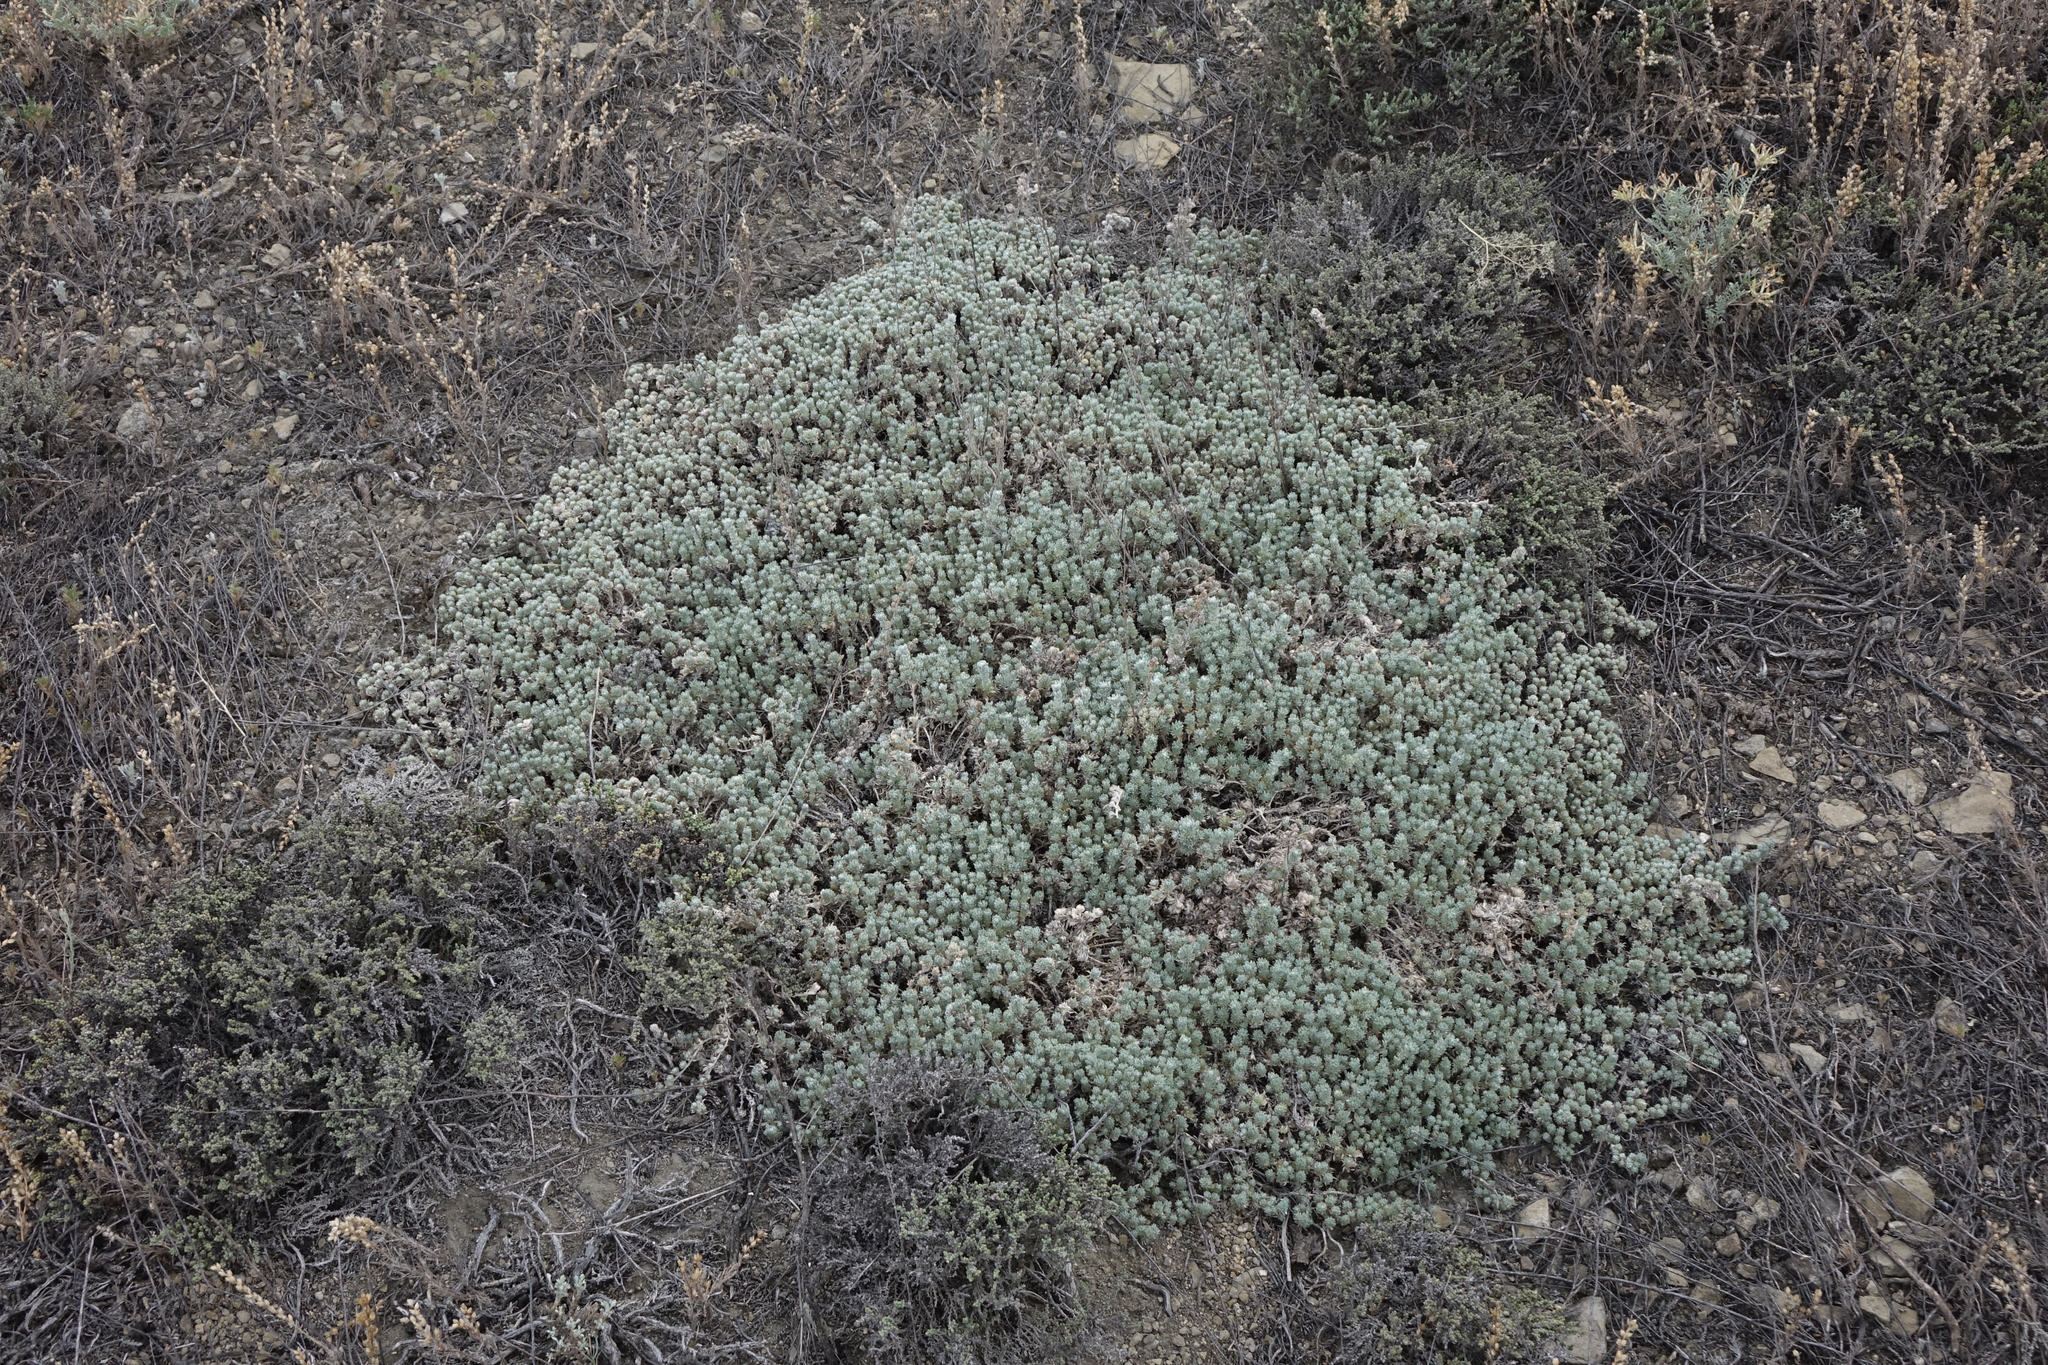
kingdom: Plantae
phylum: Tracheophyta
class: Magnoliopsida
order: Caryophyllales
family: Amaranthaceae
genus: Nanophyton
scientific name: Nanophyton grubovii
